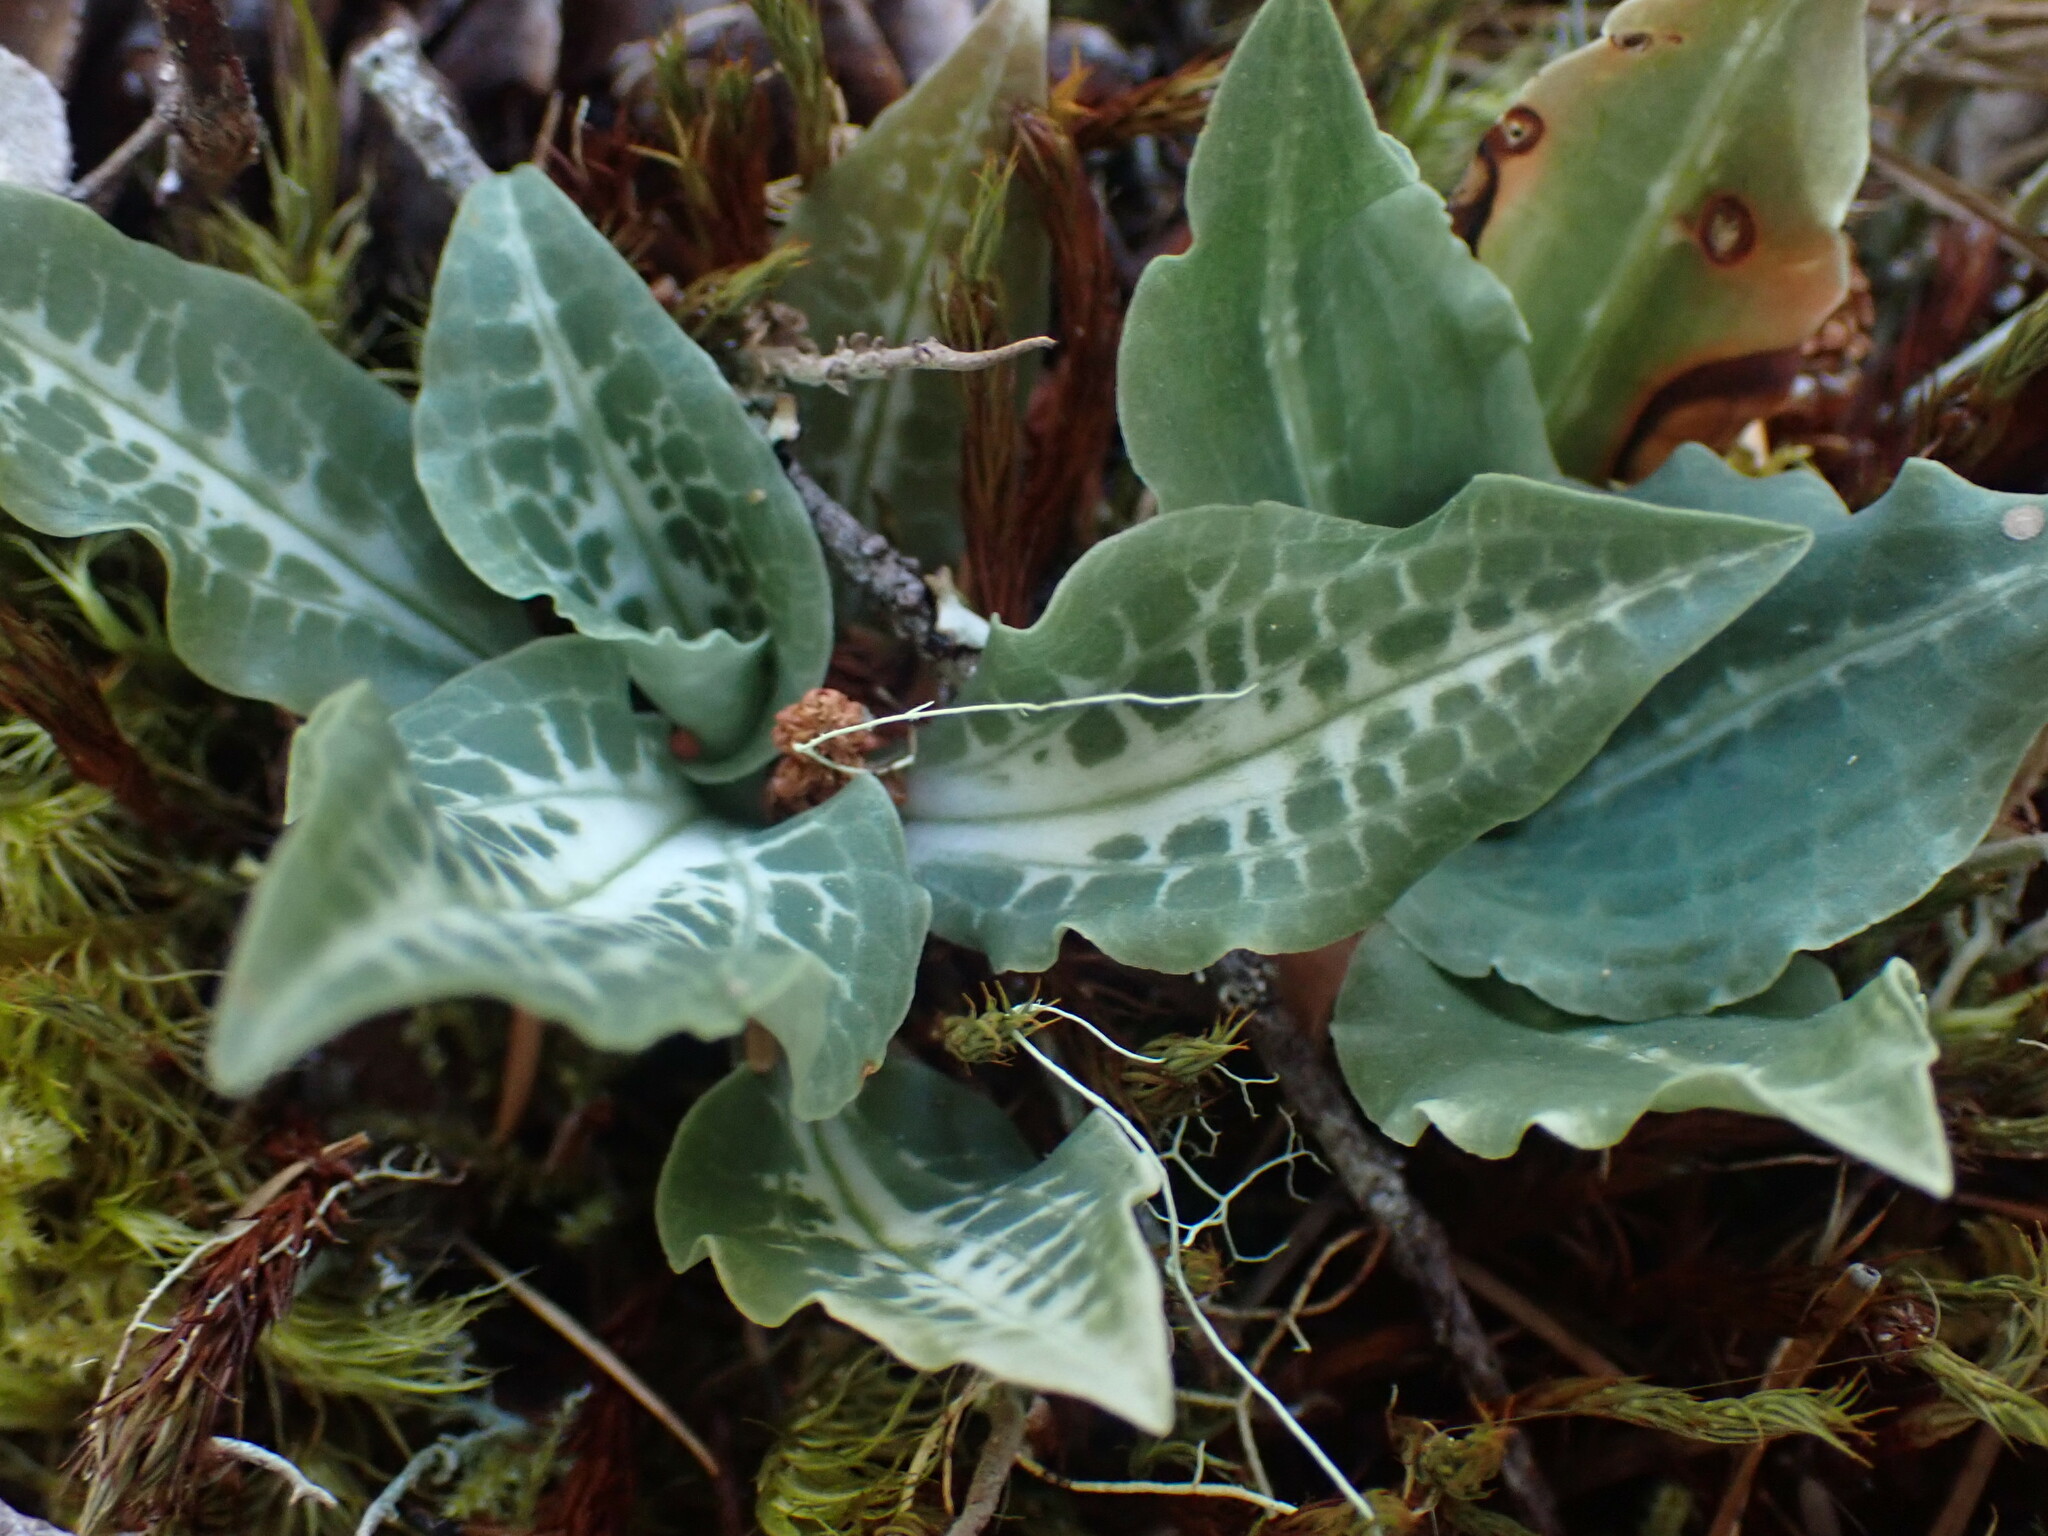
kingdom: Plantae
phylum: Tracheophyta
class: Liliopsida
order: Asparagales
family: Orchidaceae
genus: Goodyera
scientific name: Goodyera oblongifolia
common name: Giant rattlesnake-plantain
